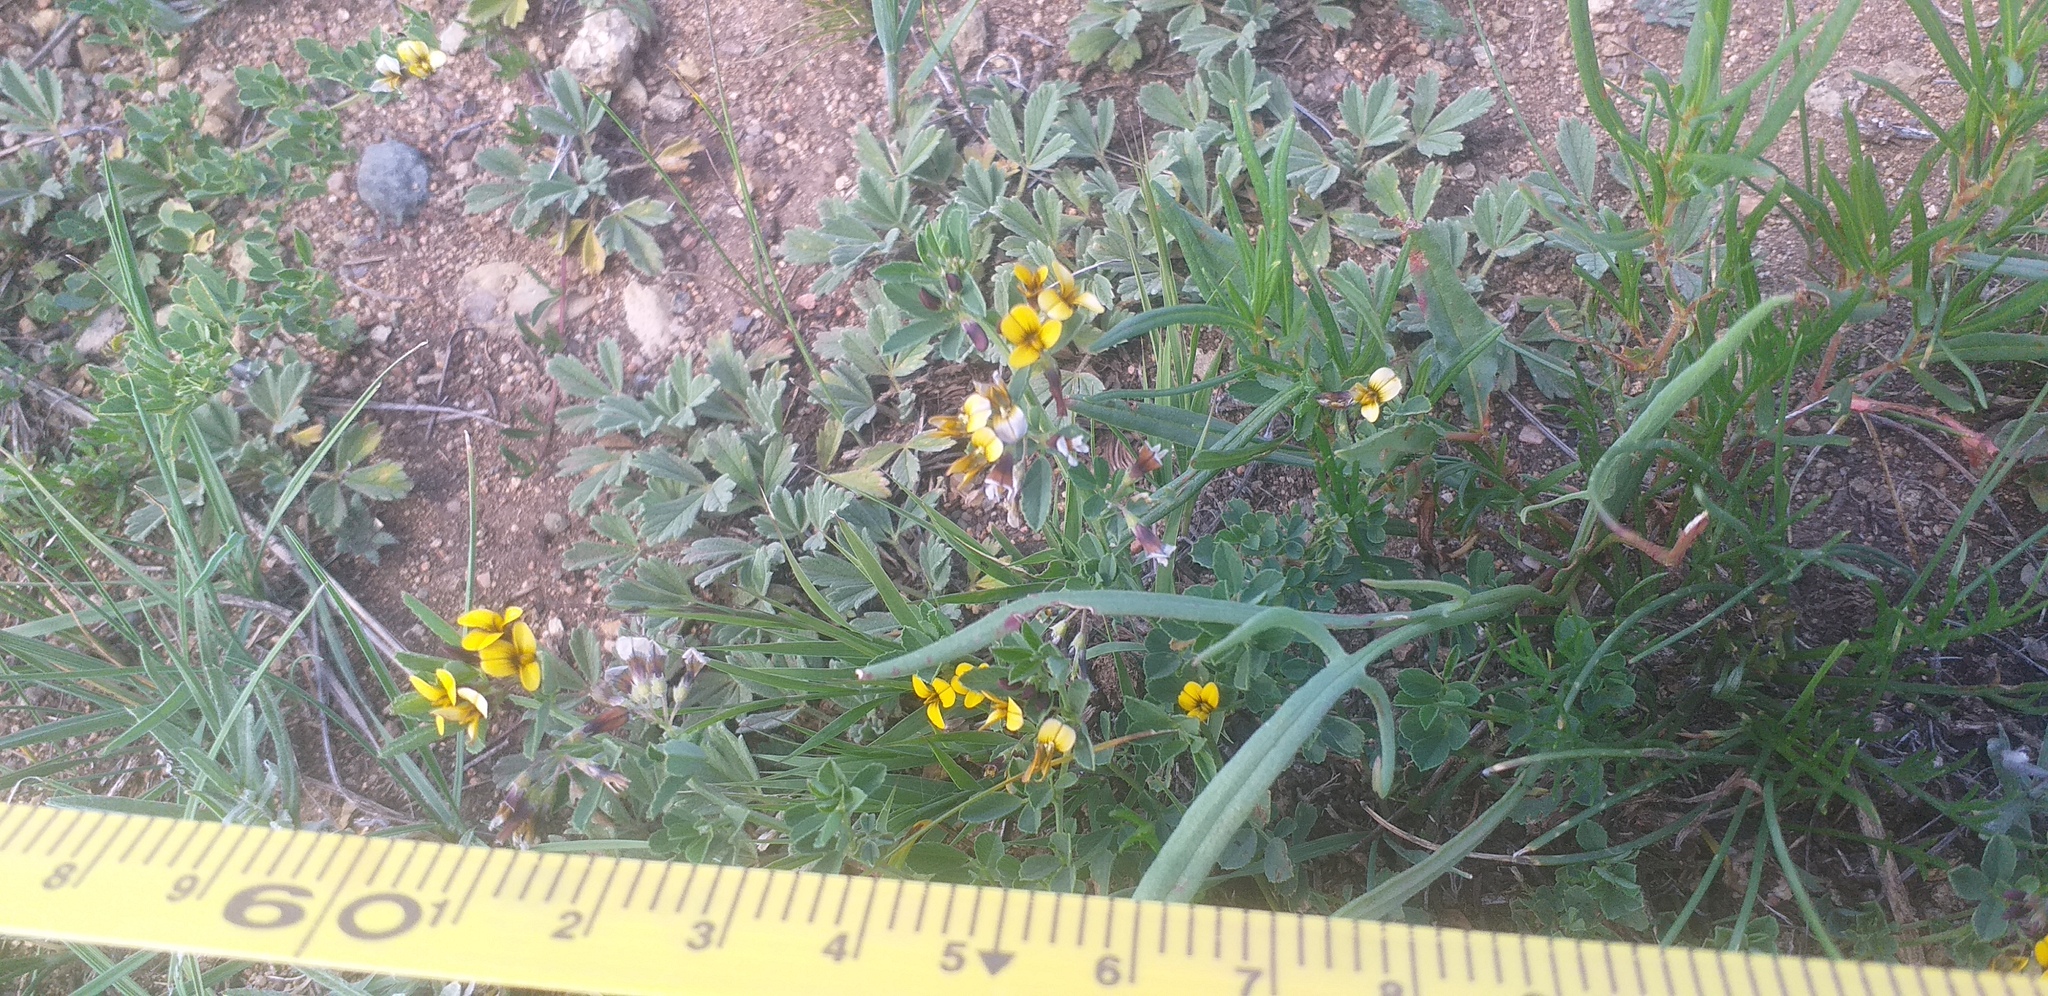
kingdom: Plantae
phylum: Tracheophyta
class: Magnoliopsida
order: Fabales
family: Fabaceae
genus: Medicago
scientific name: Medicago ruthenica
